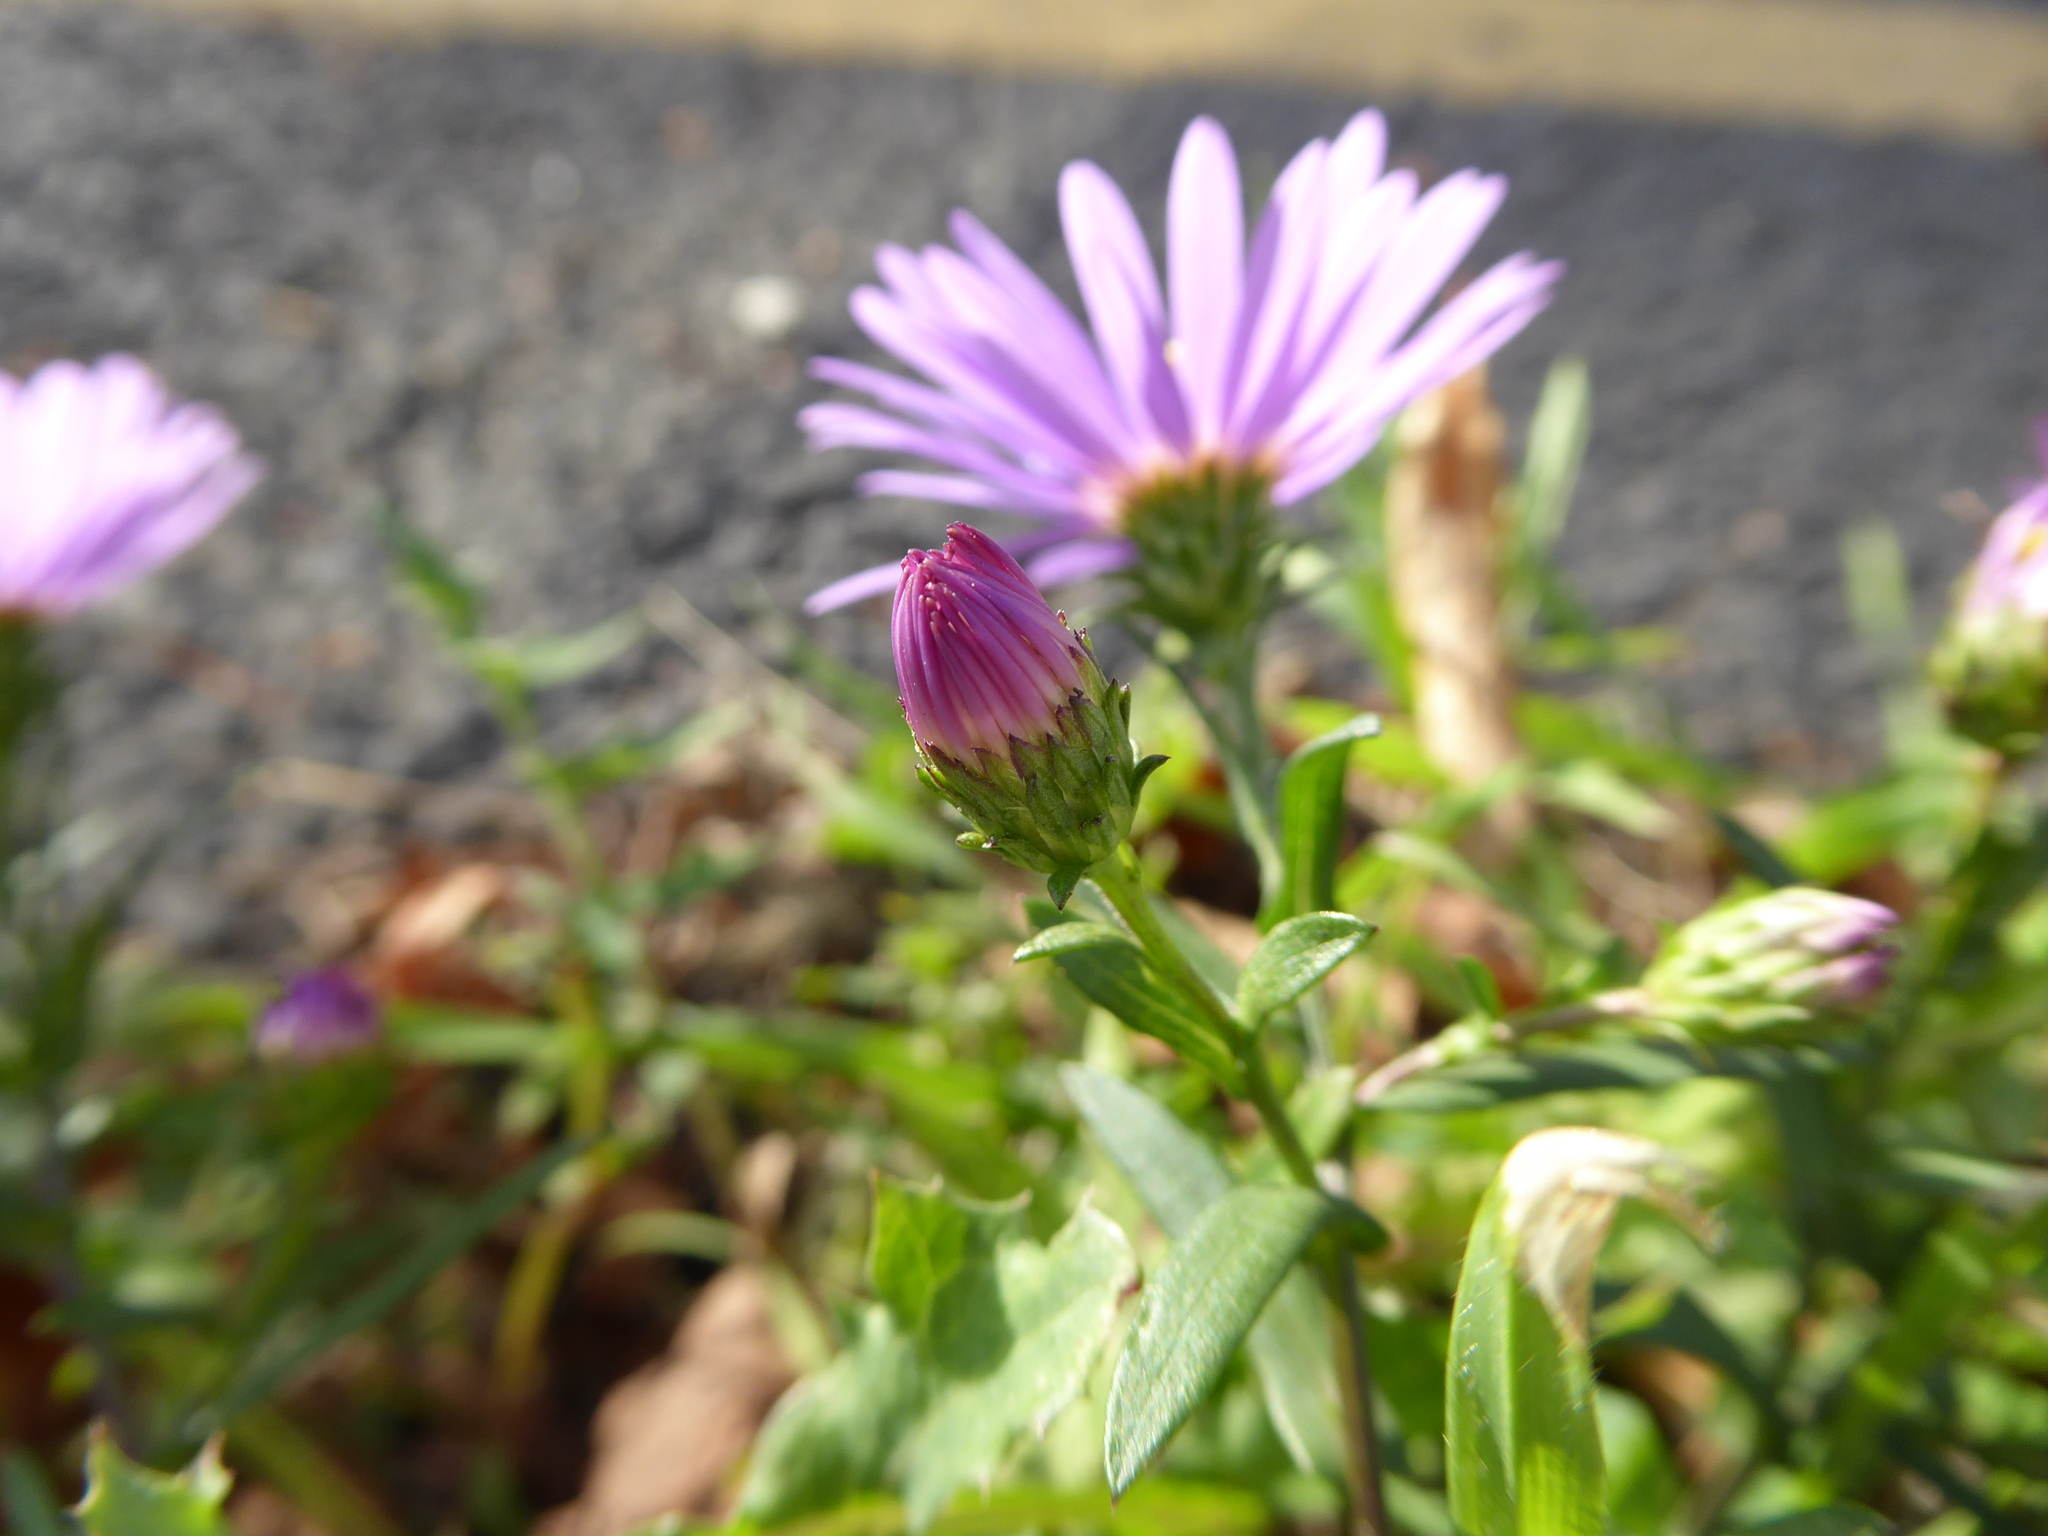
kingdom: Plantae
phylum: Tracheophyta
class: Magnoliopsida
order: Asterales
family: Asteraceae
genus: Symphyotrichum
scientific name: Symphyotrichum
